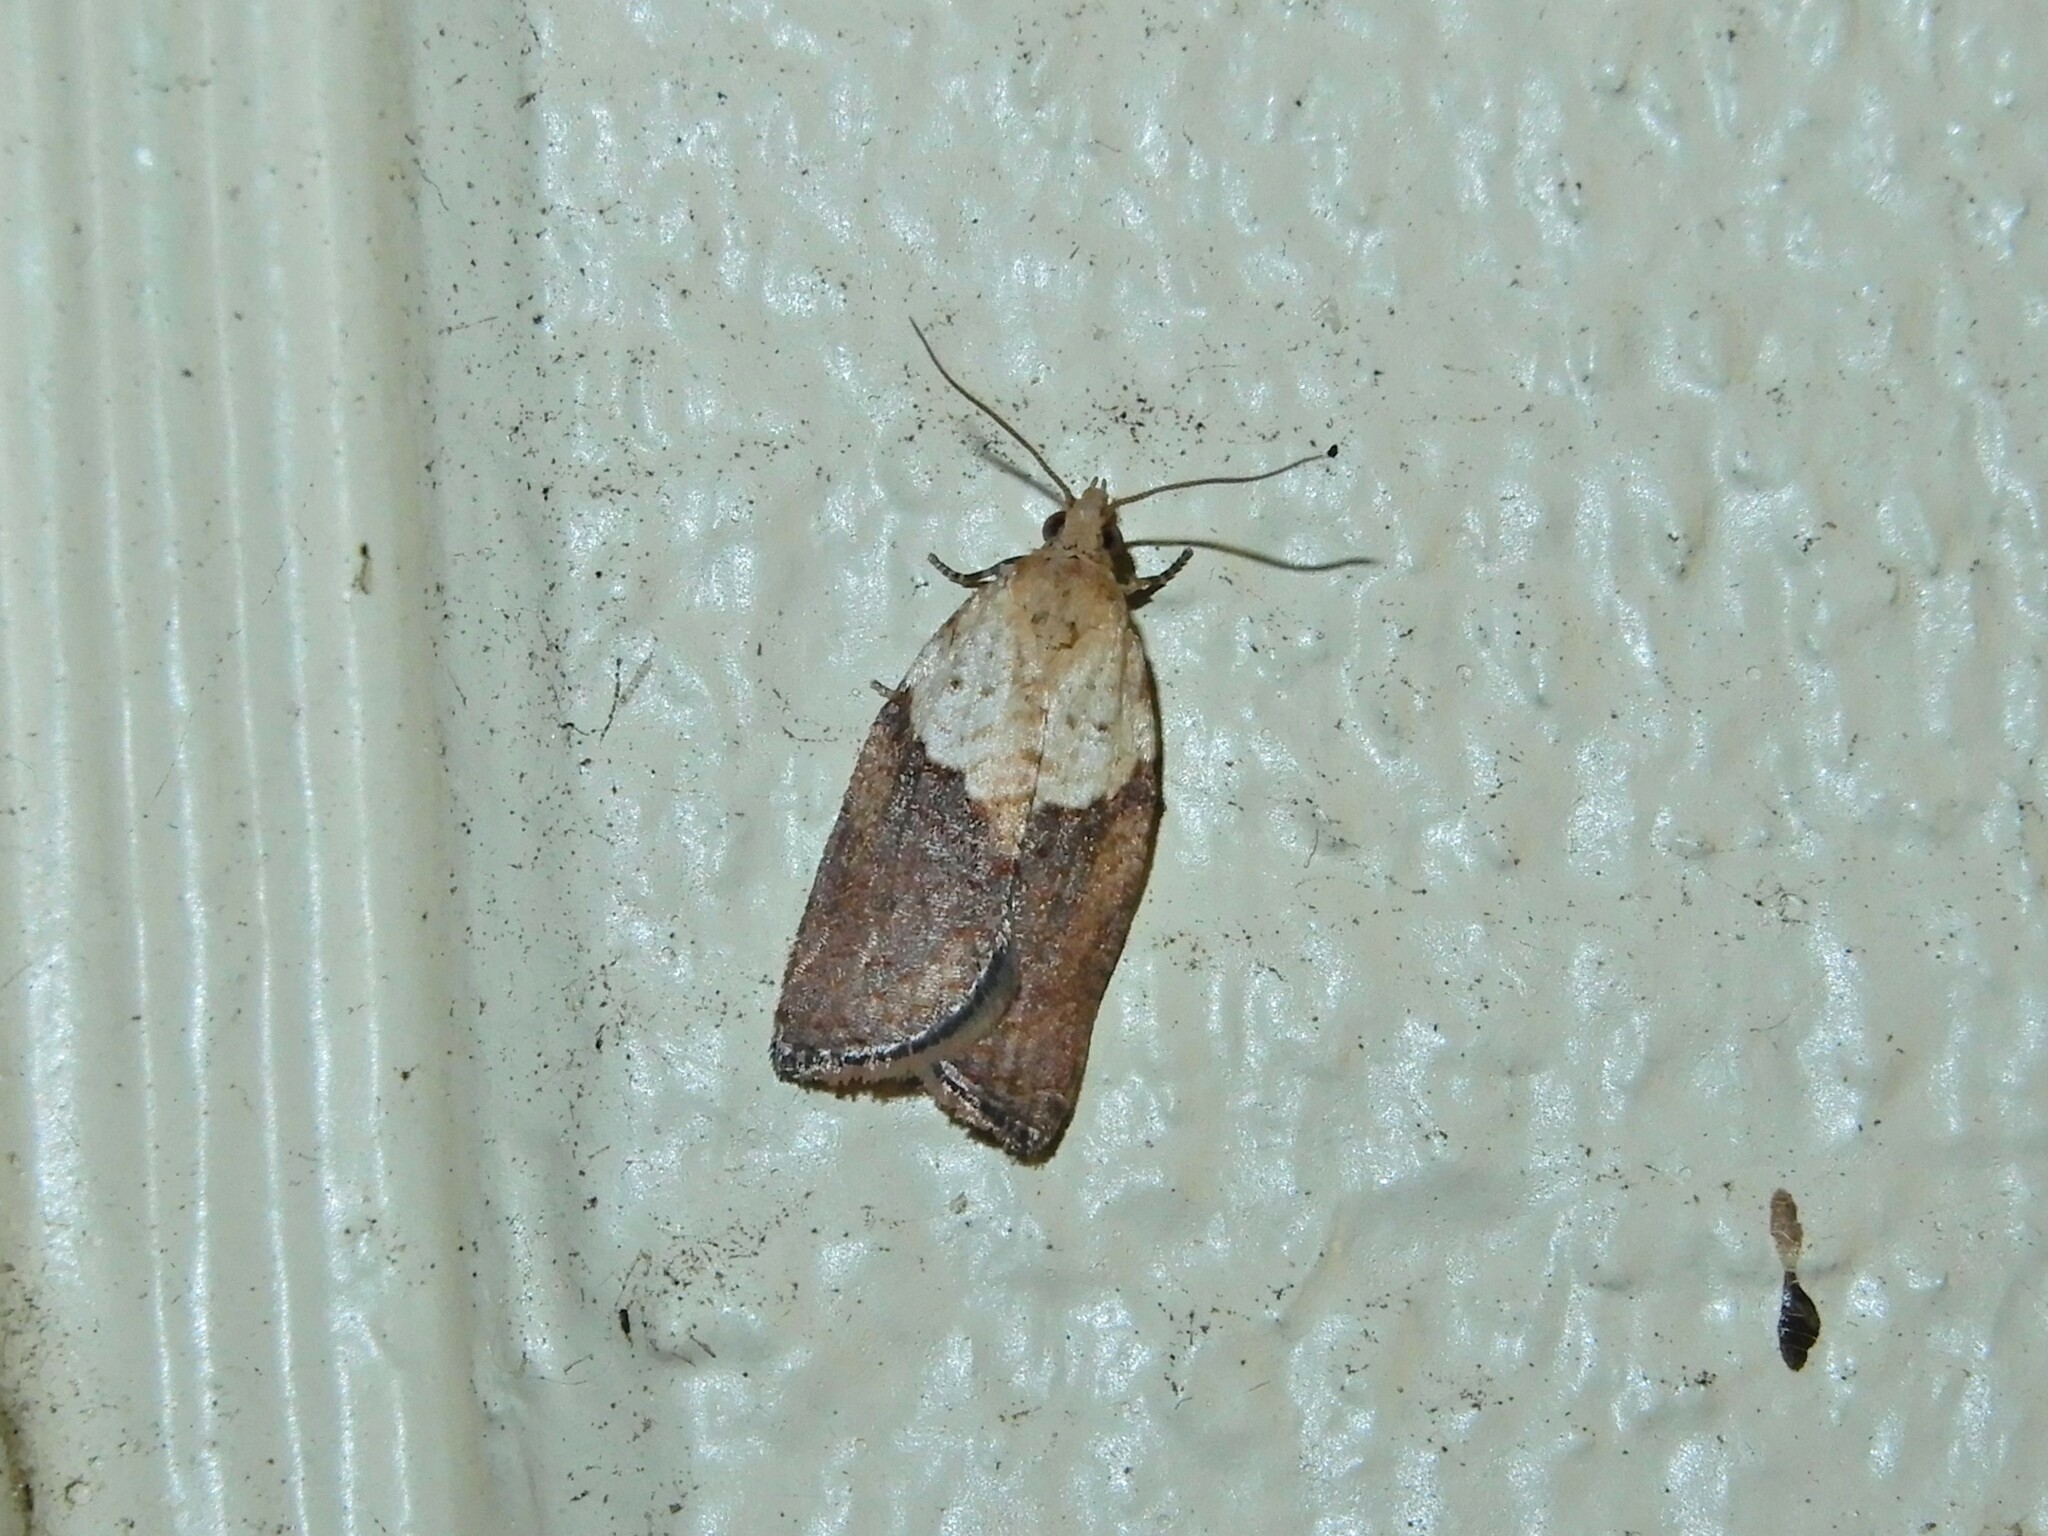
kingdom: Animalia
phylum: Arthropoda
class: Insecta
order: Lepidoptera
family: Tortricidae
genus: Epiphyas
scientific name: Epiphyas postvittana
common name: Light brown apple moth
